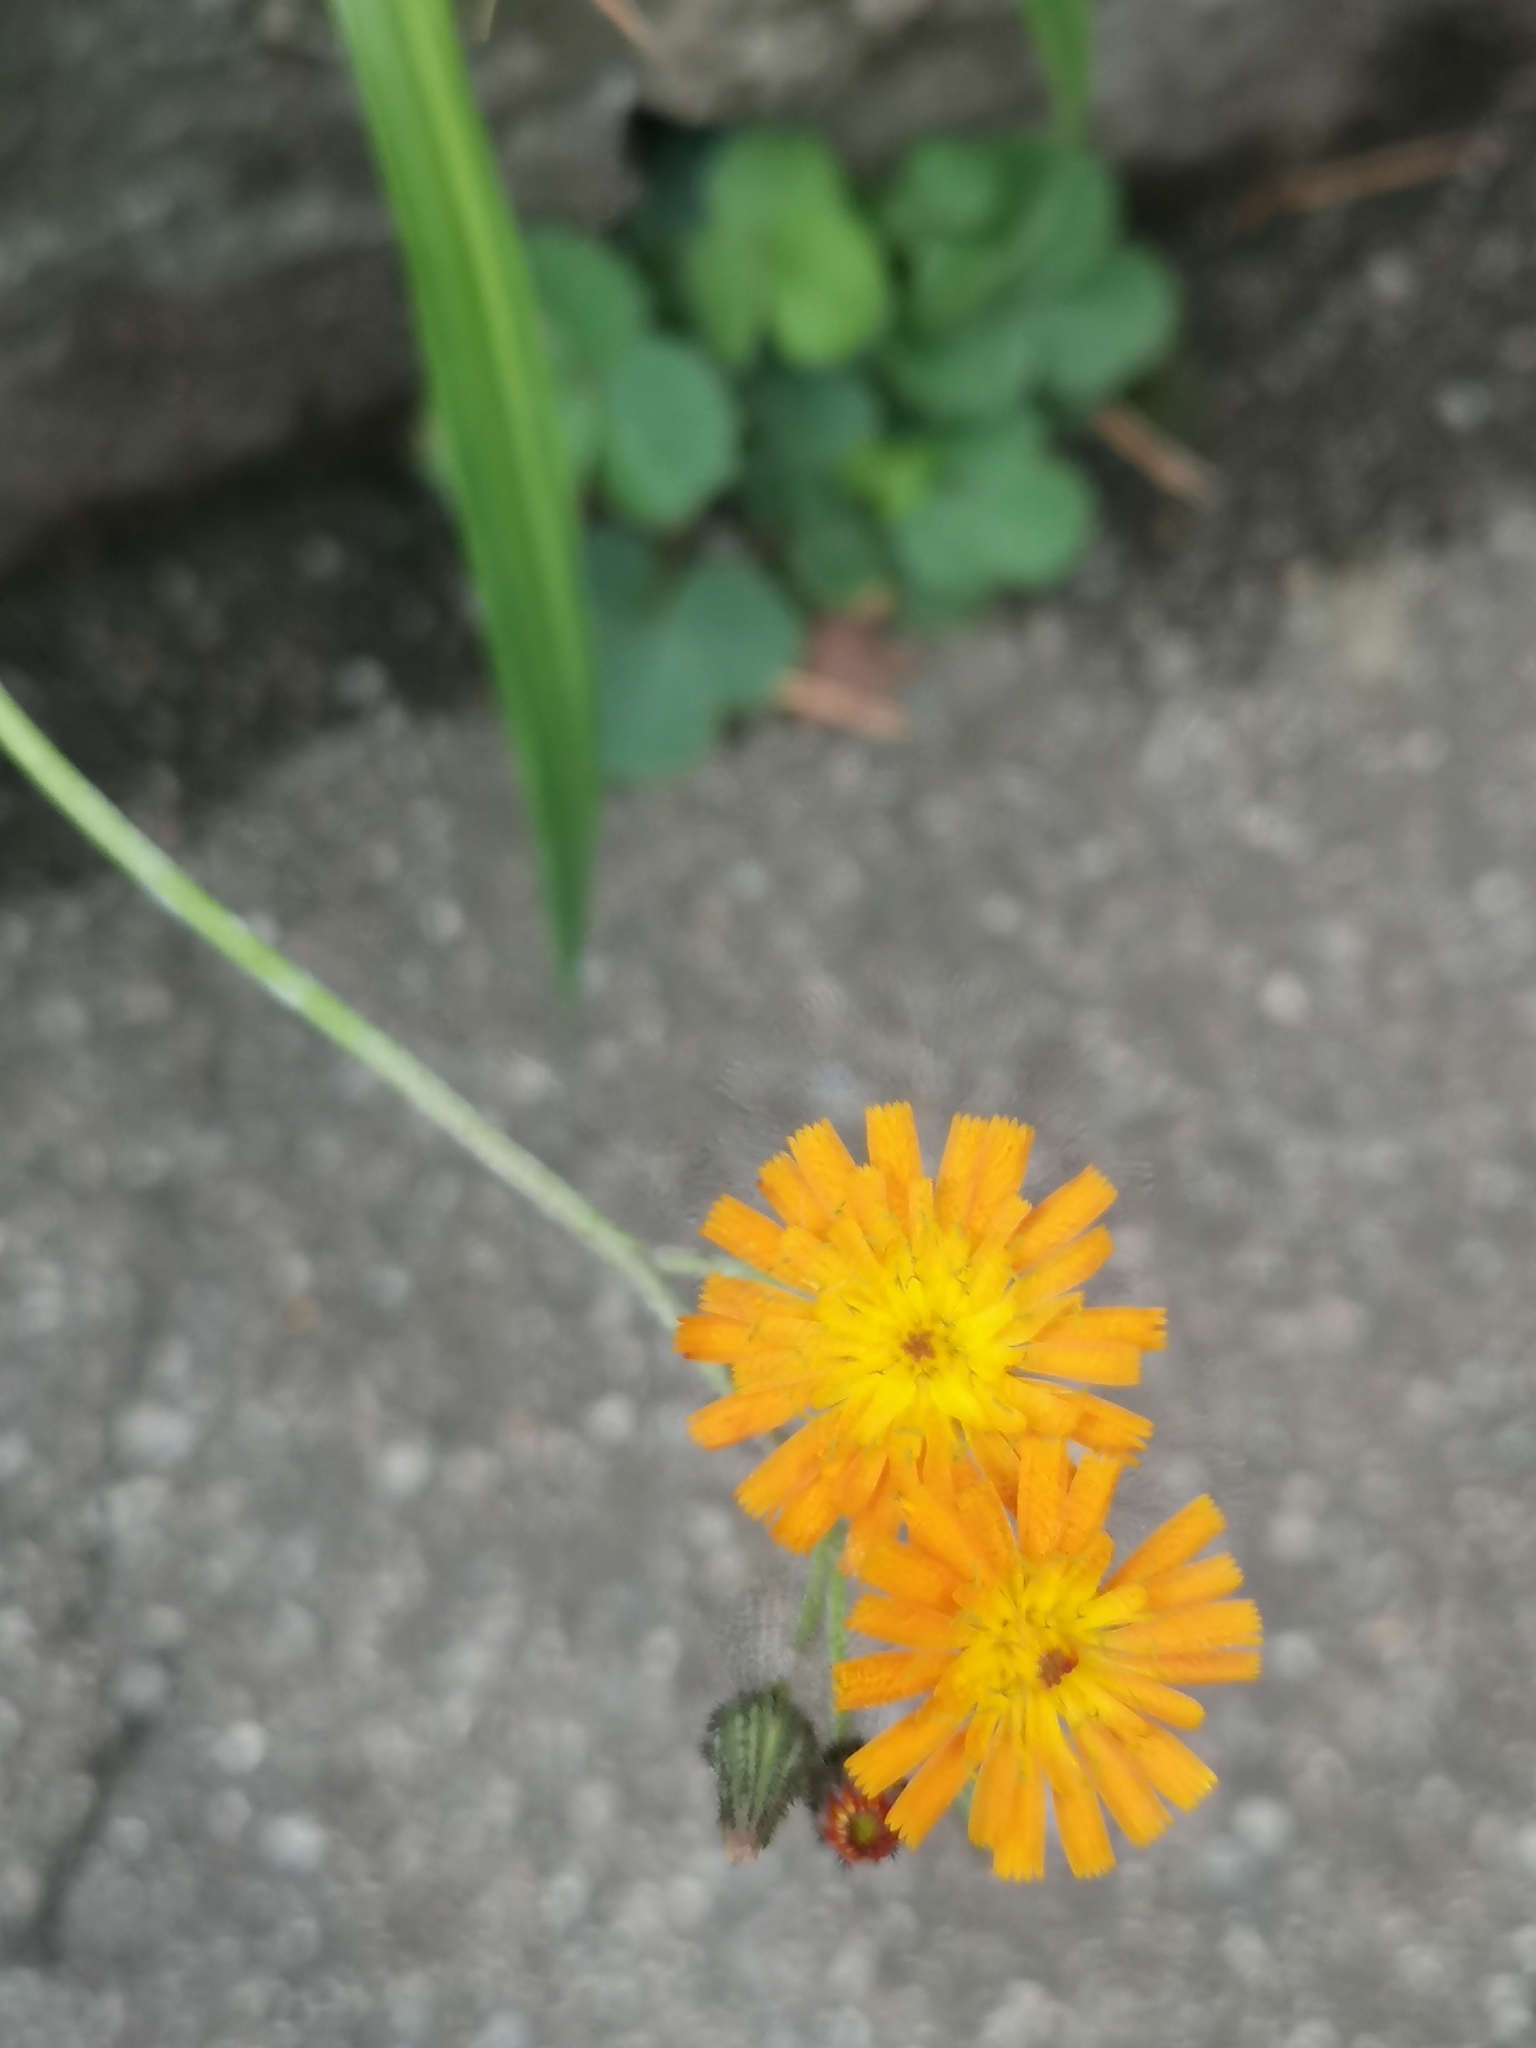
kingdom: Plantae
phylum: Tracheophyta
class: Magnoliopsida
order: Asterales
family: Asteraceae
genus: Pilosella
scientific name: Pilosella aurantiaca
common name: Fox-and-cubs
